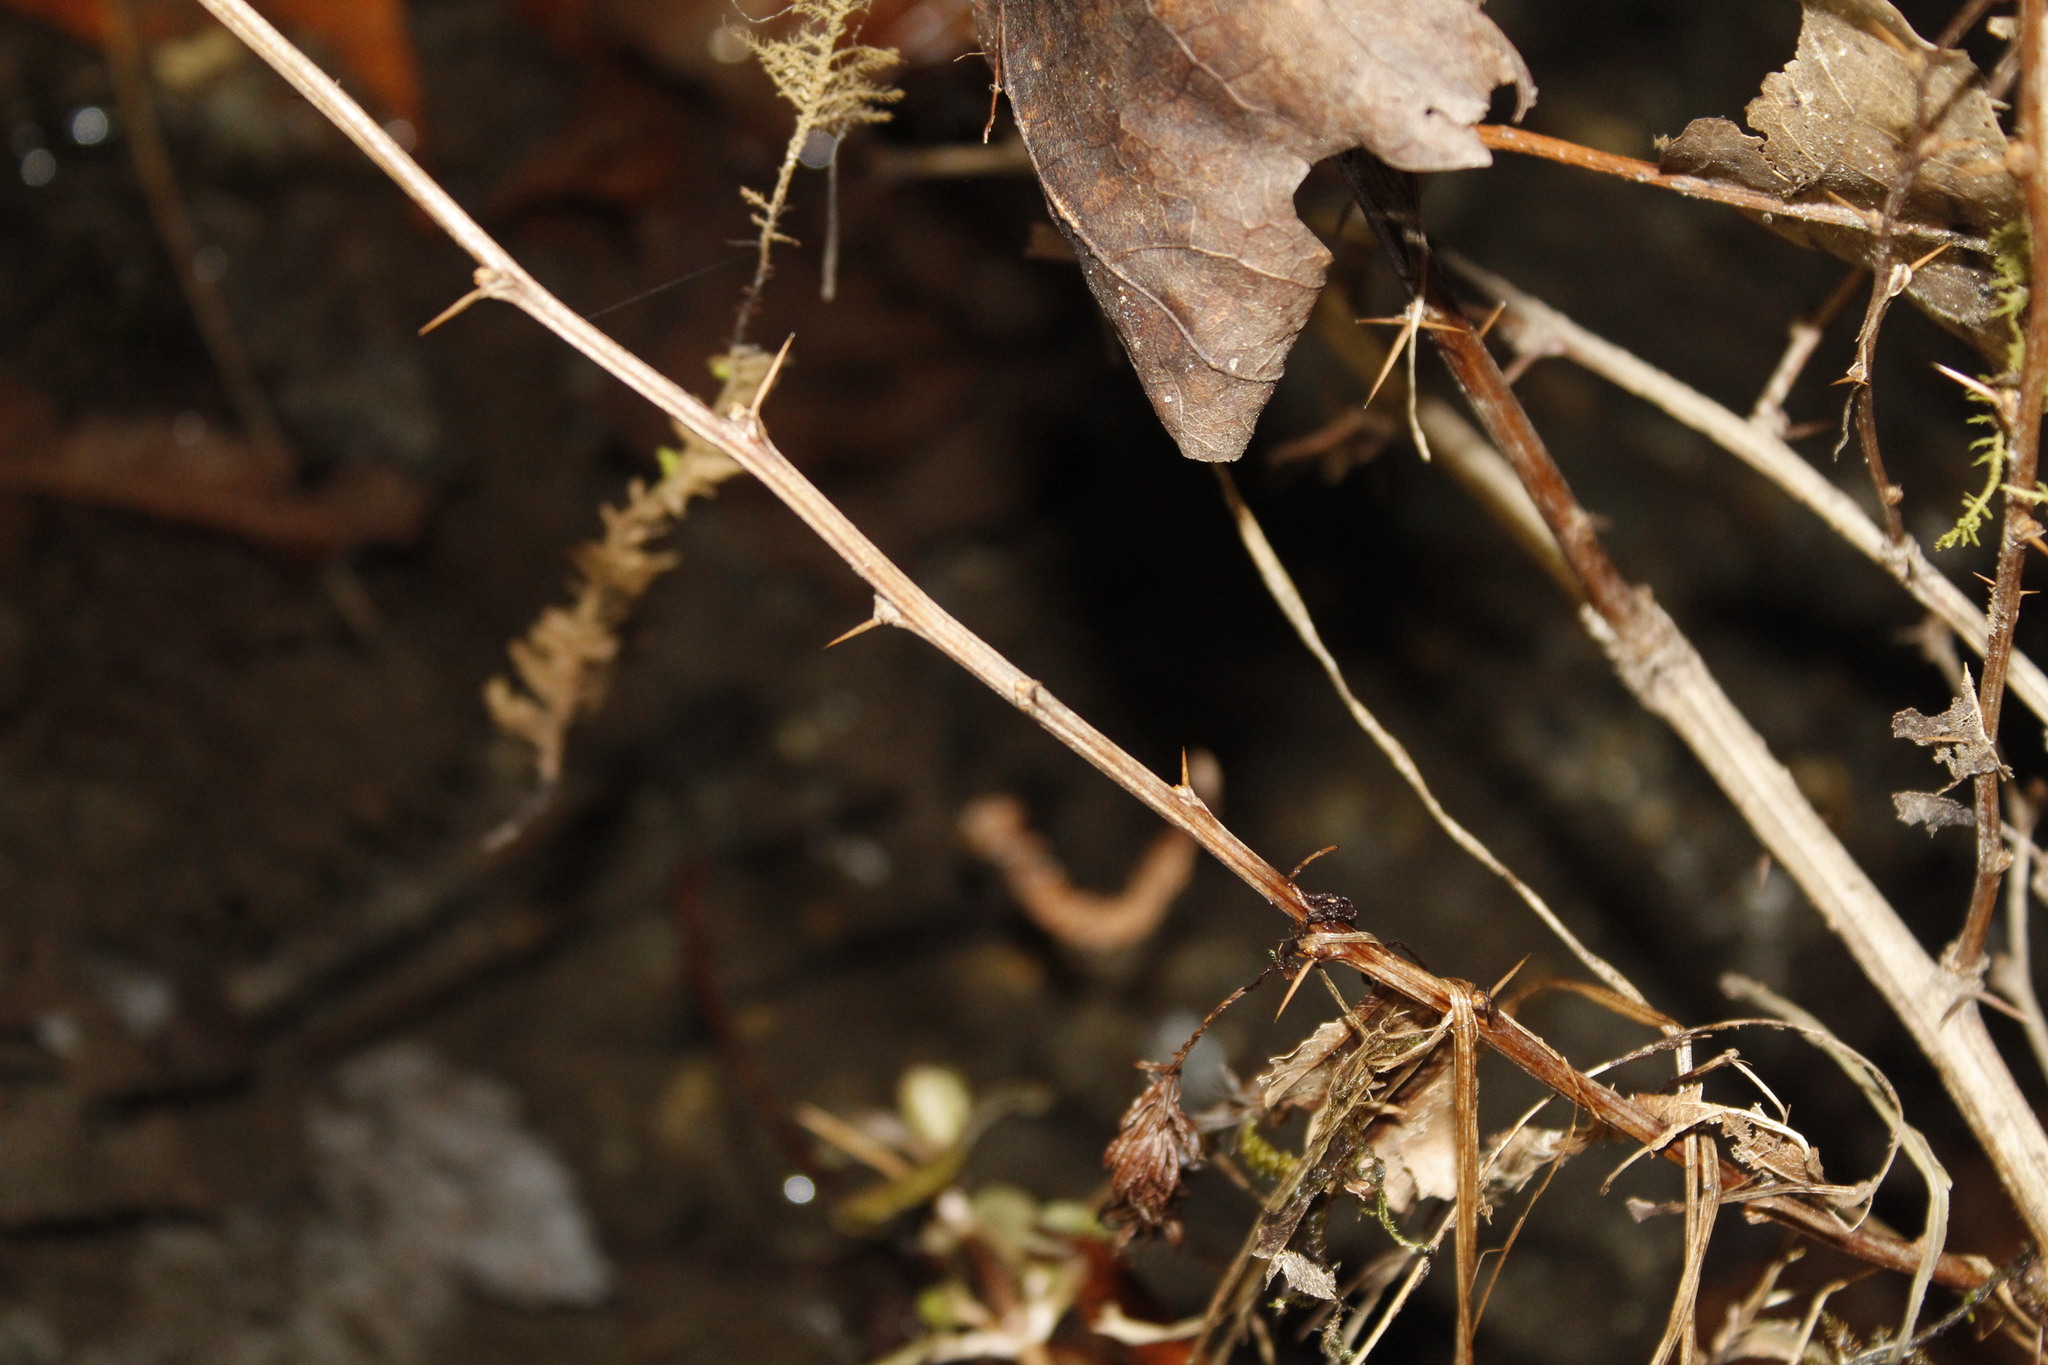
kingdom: Plantae
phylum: Tracheophyta
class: Magnoliopsida
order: Ranunculales
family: Berberidaceae
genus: Berberis
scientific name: Berberis thunbergii
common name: Japanese barberry
